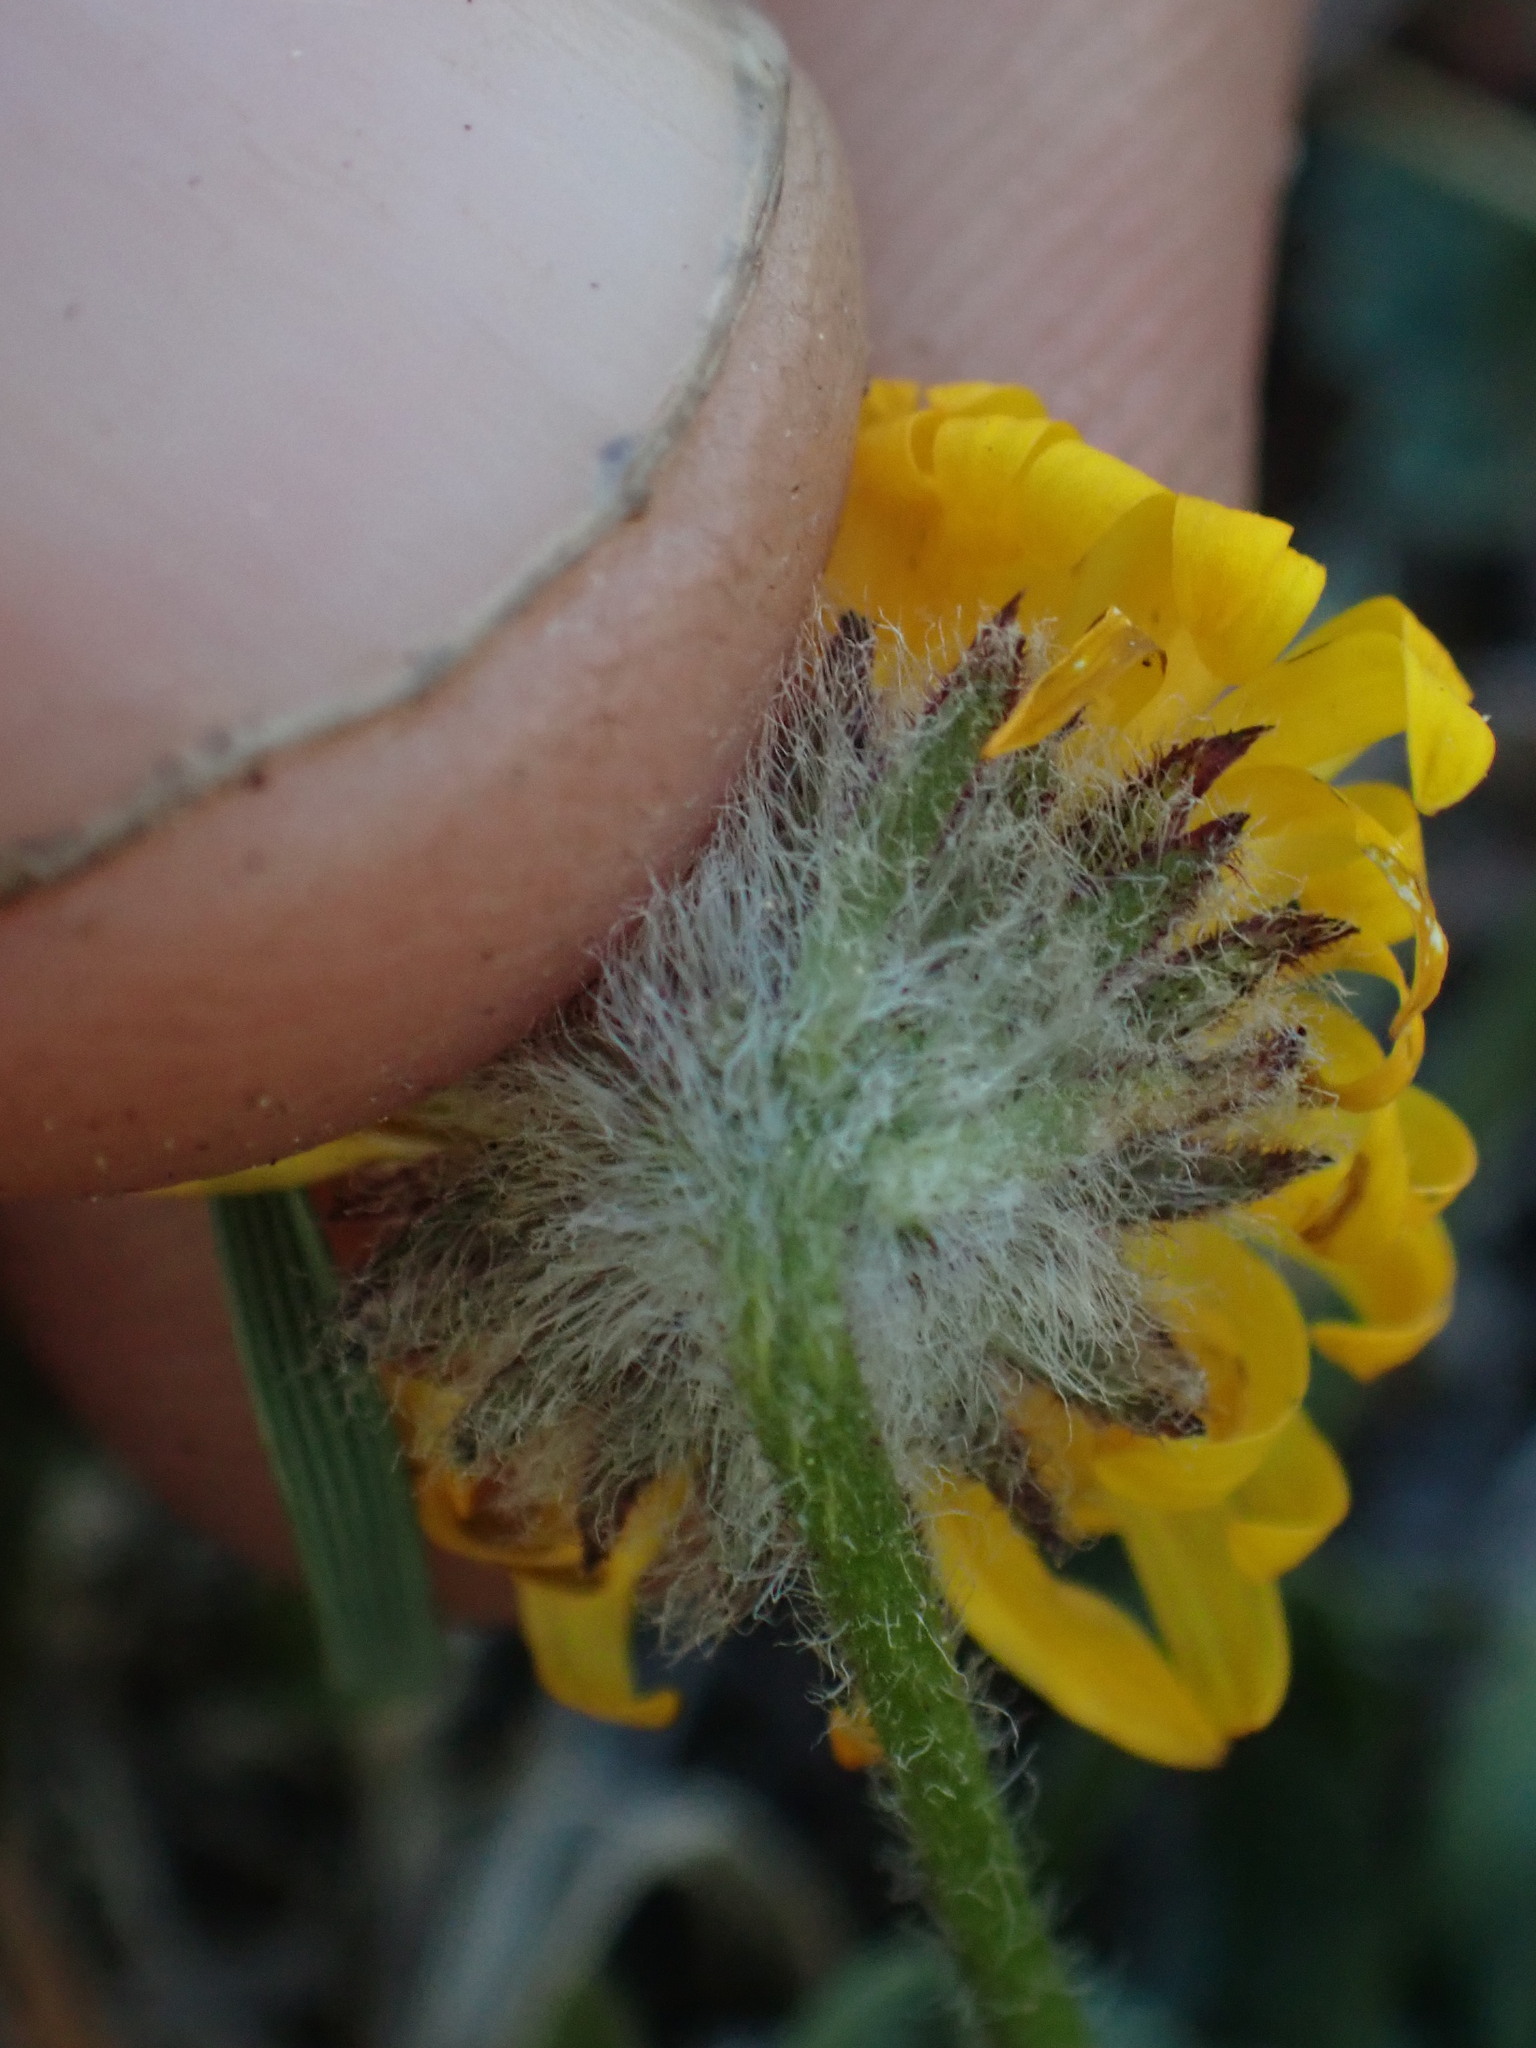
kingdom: Plantae
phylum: Tracheophyta
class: Magnoliopsida
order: Asterales
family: Asteraceae
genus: Erigeron
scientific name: Erigeron aureus
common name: Alpine yellow fleabane
